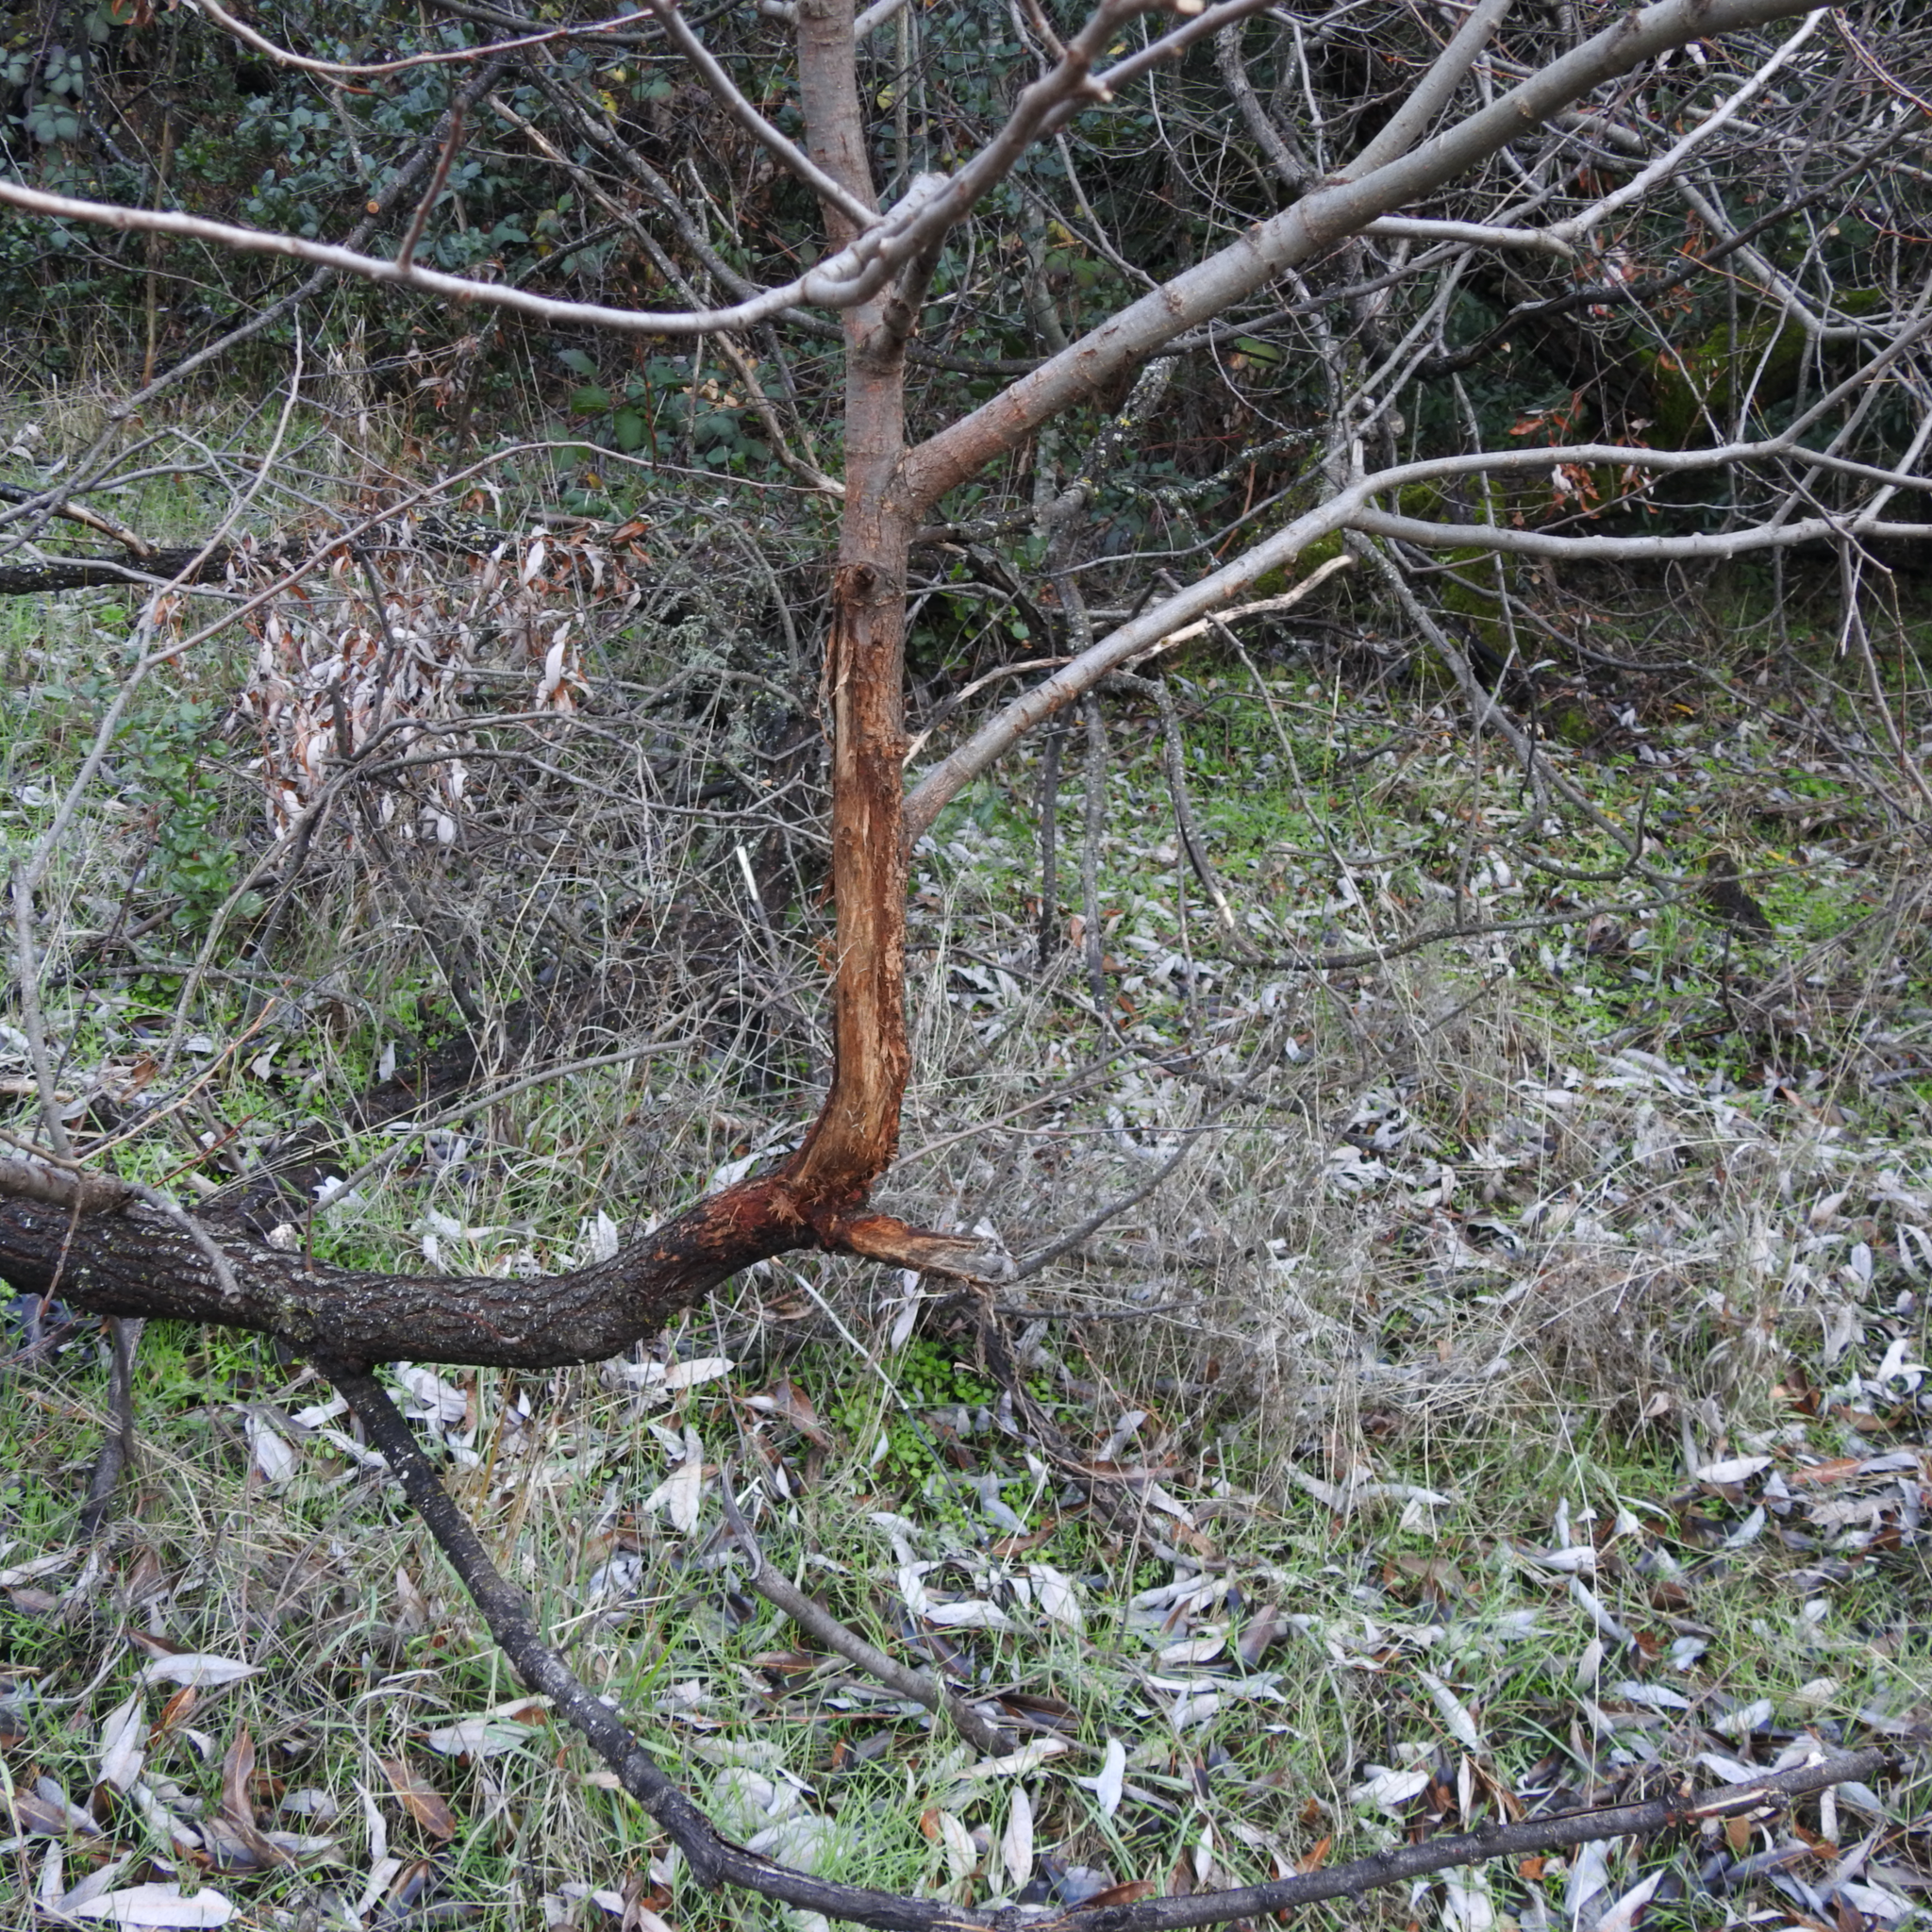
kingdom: Animalia
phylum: Chordata
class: Mammalia
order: Artiodactyla
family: Cervidae
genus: Odocoileus
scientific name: Odocoileus hemionus
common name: Mule deer
